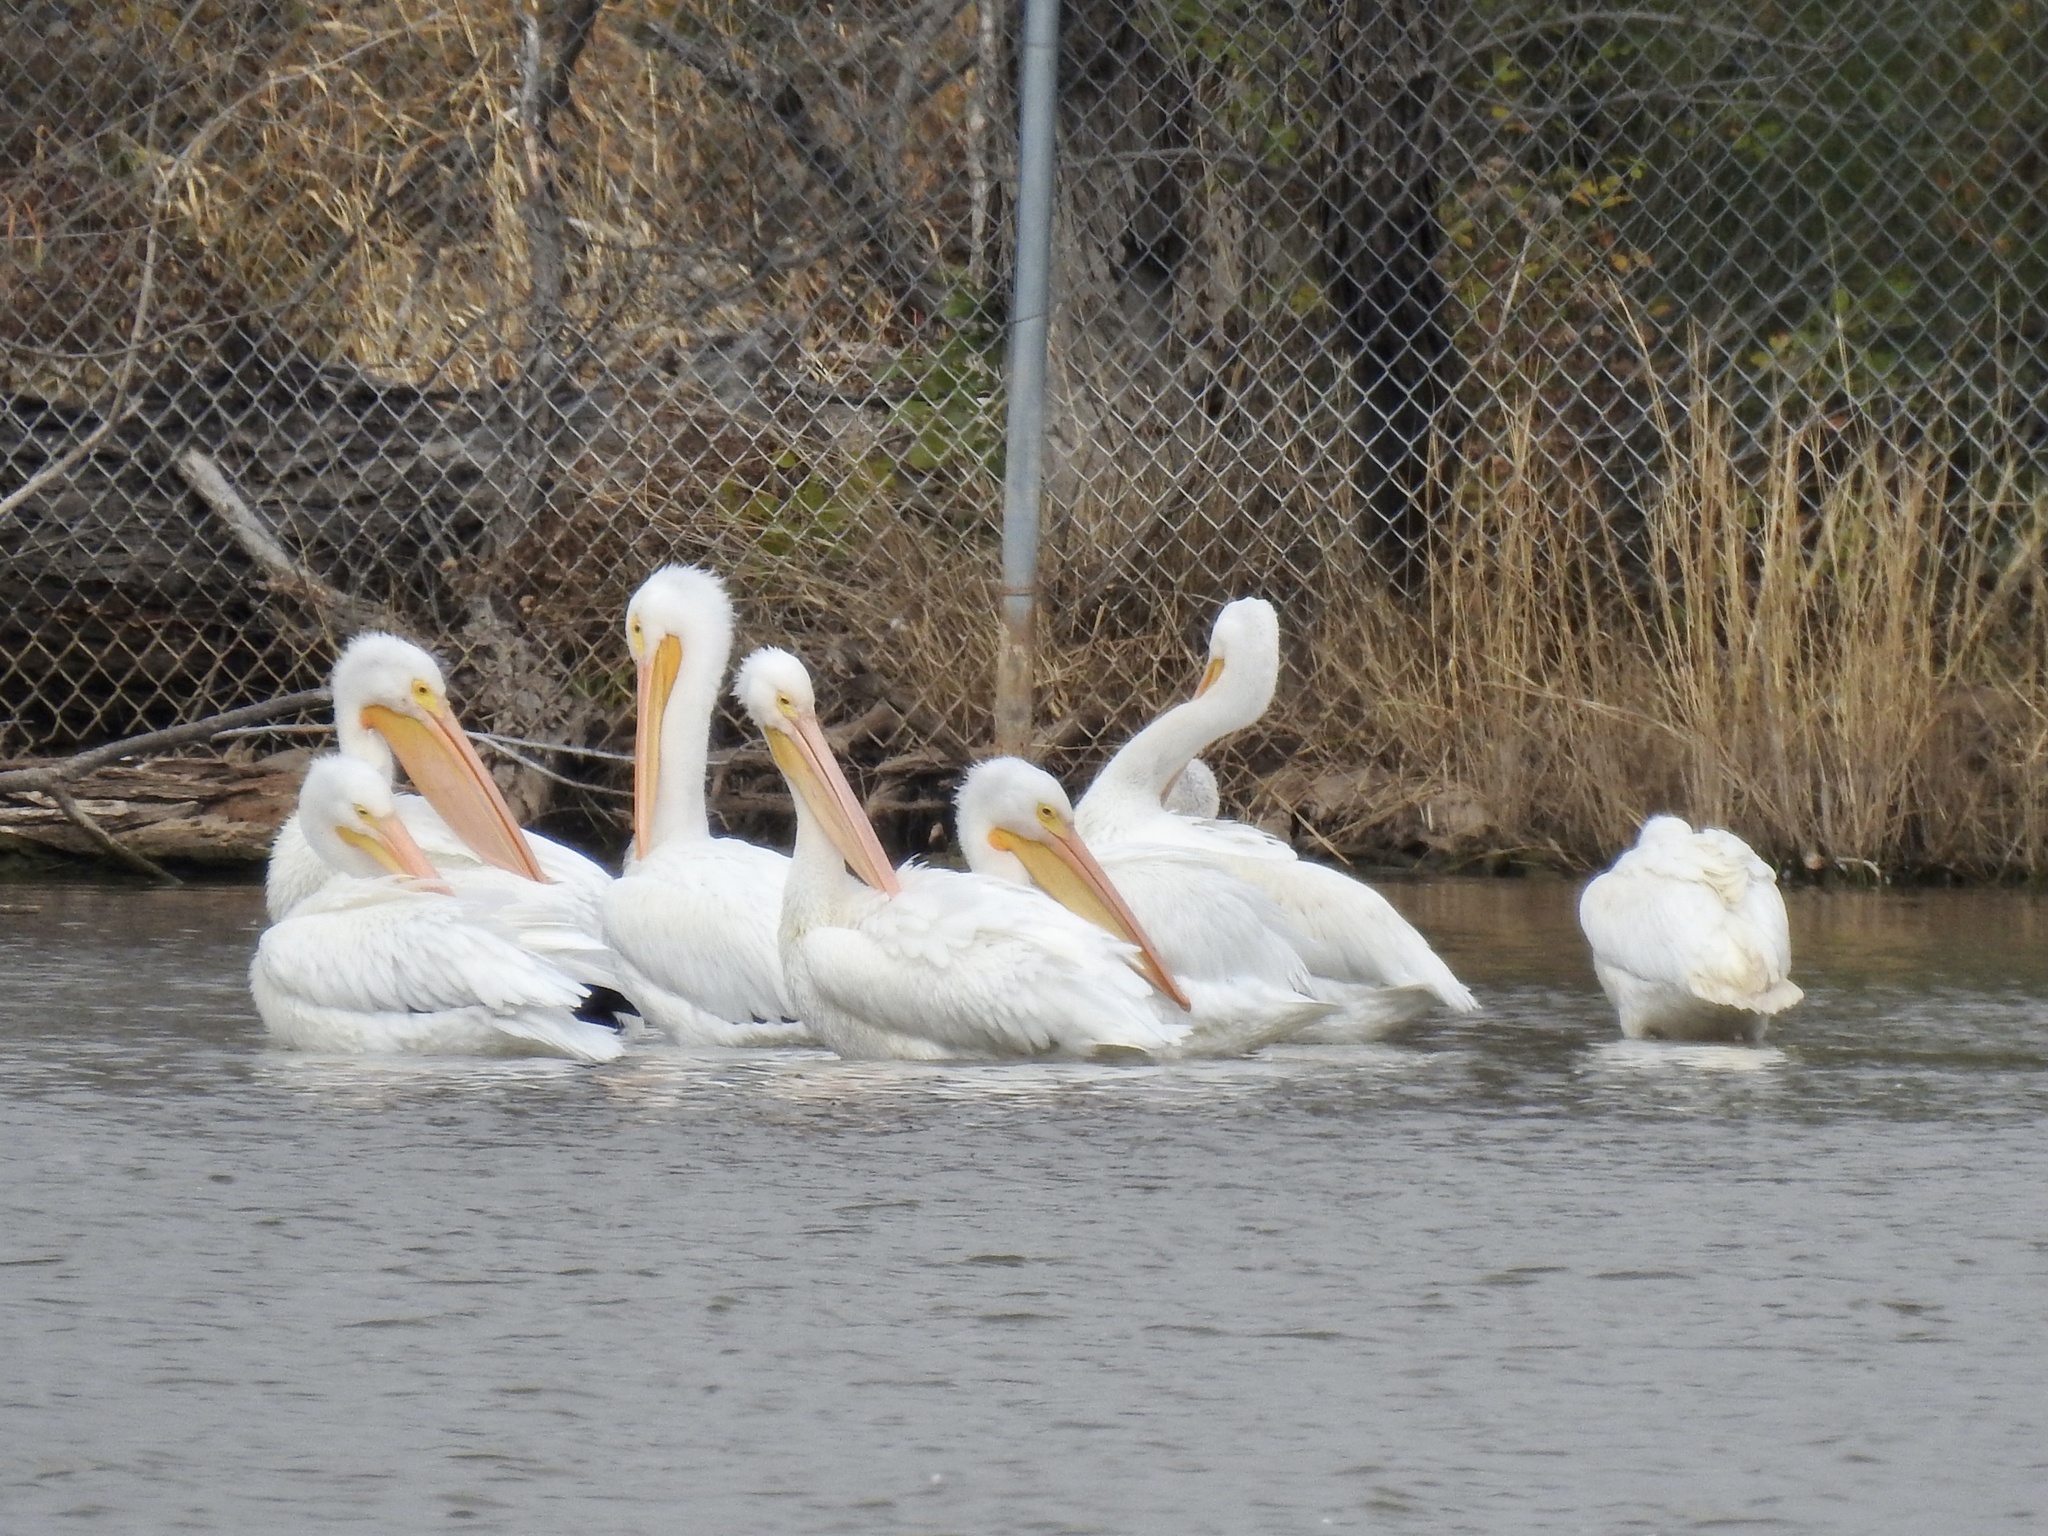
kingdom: Animalia
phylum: Chordata
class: Aves
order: Pelecaniformes
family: Pelecanidae
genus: Pelecanus
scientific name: Pelecanus erythrorhynchos
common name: American white pelican
